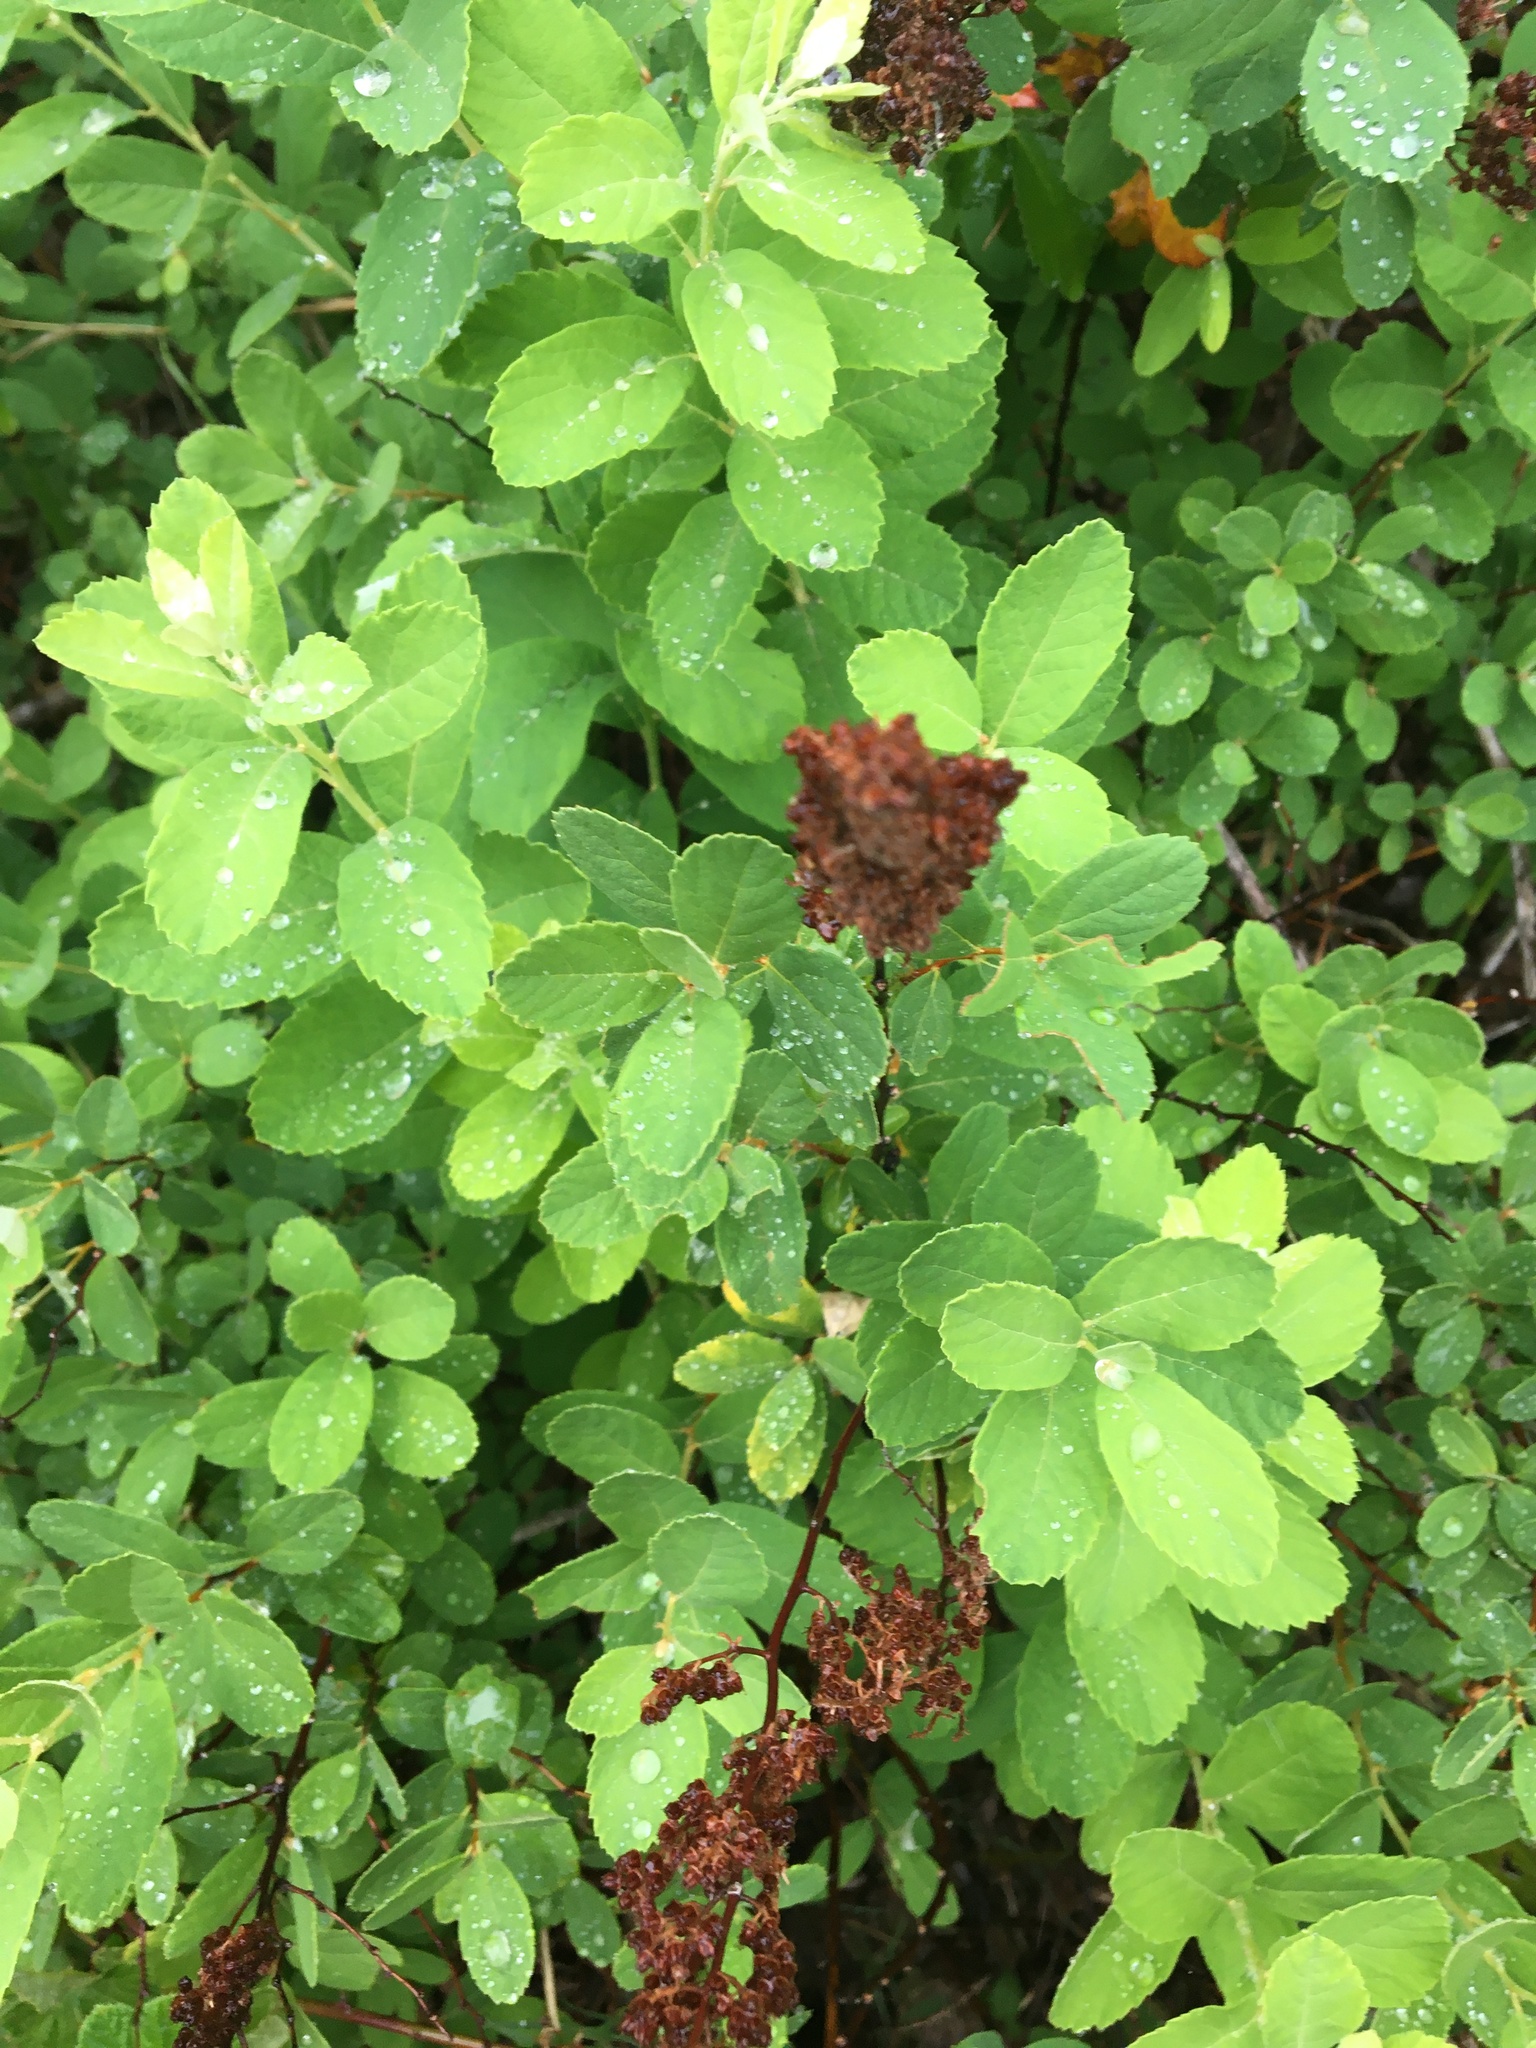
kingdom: Plantae
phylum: Tracheophyta
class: Magnoliopsida
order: Rosales
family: Rosaceae
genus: Spiraea
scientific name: Spiraea douglasii
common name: Steeplebush
